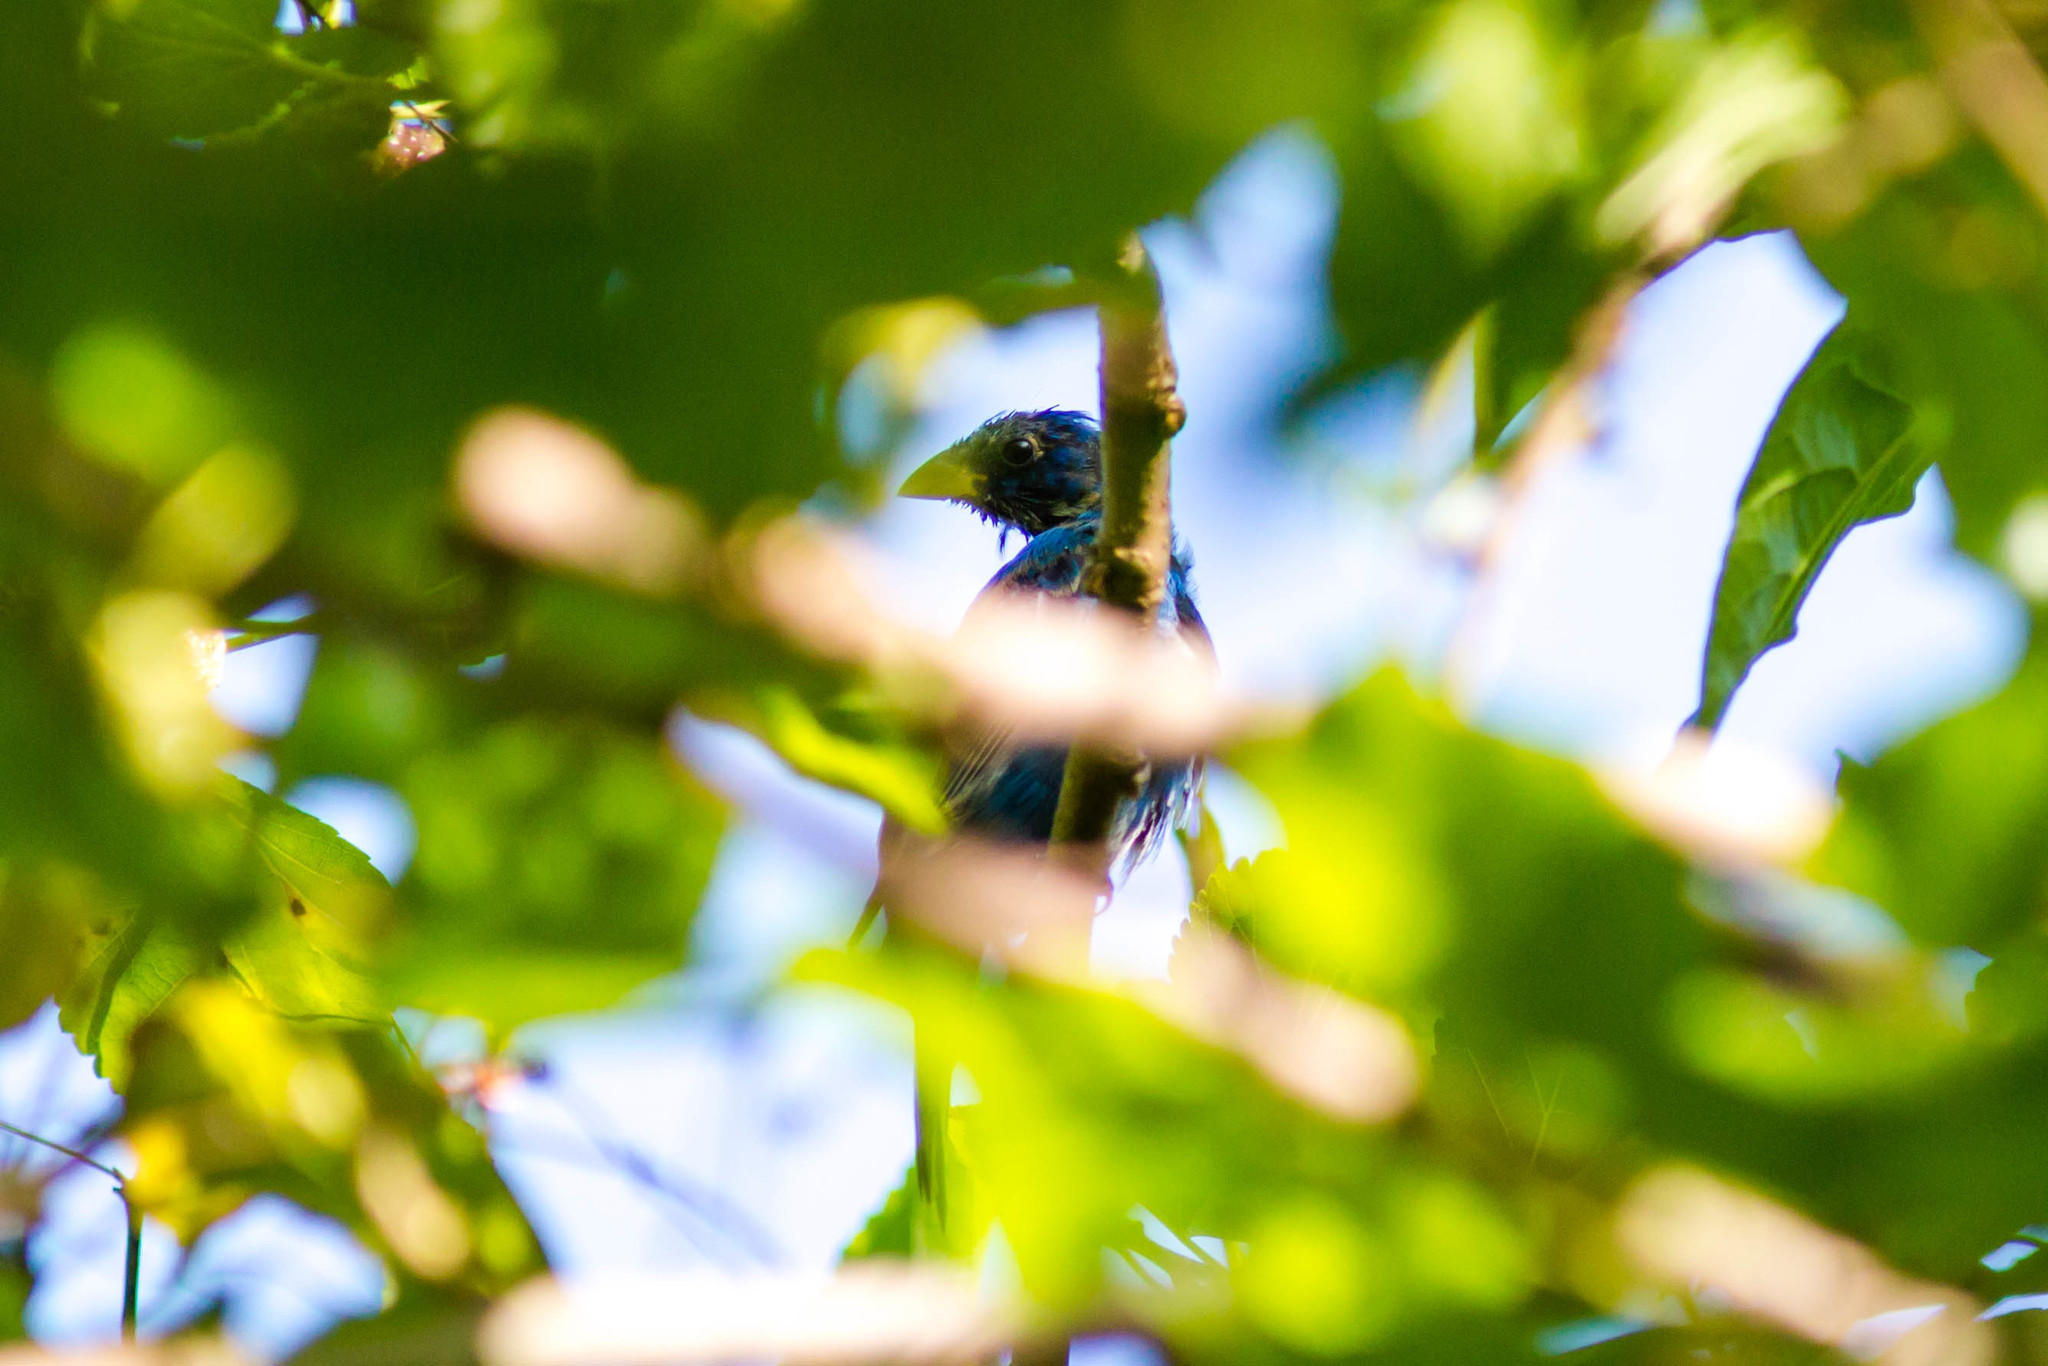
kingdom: Animalia
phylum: Chordata
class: Aves
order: Passeriformes
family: Cardinalidae
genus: Passerina
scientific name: Passerina caerulea
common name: Blue grosbeak
